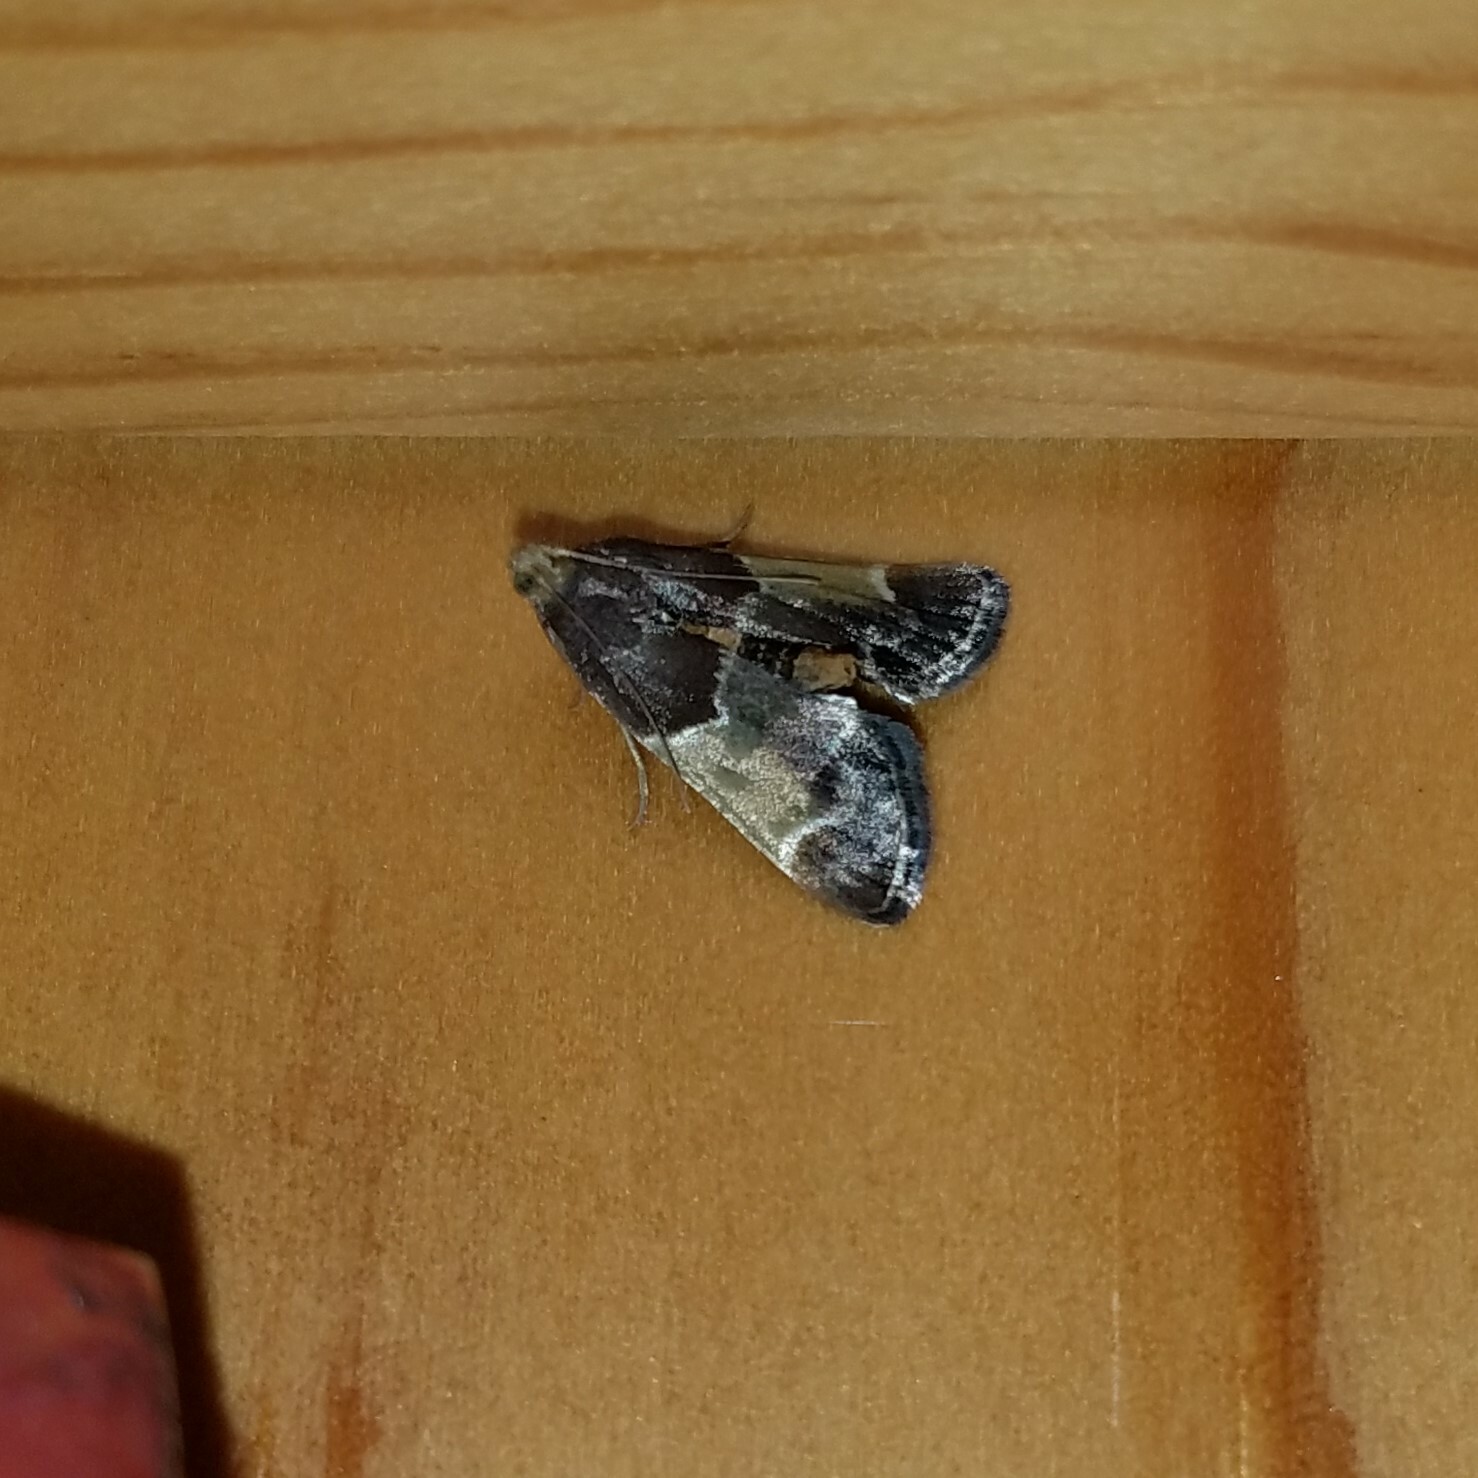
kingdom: Animalia
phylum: Arthropoda
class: Insecta
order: Lepidoptera
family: Pyralidae
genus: Pyralis
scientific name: Pyralis farinalis
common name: Meal moth
